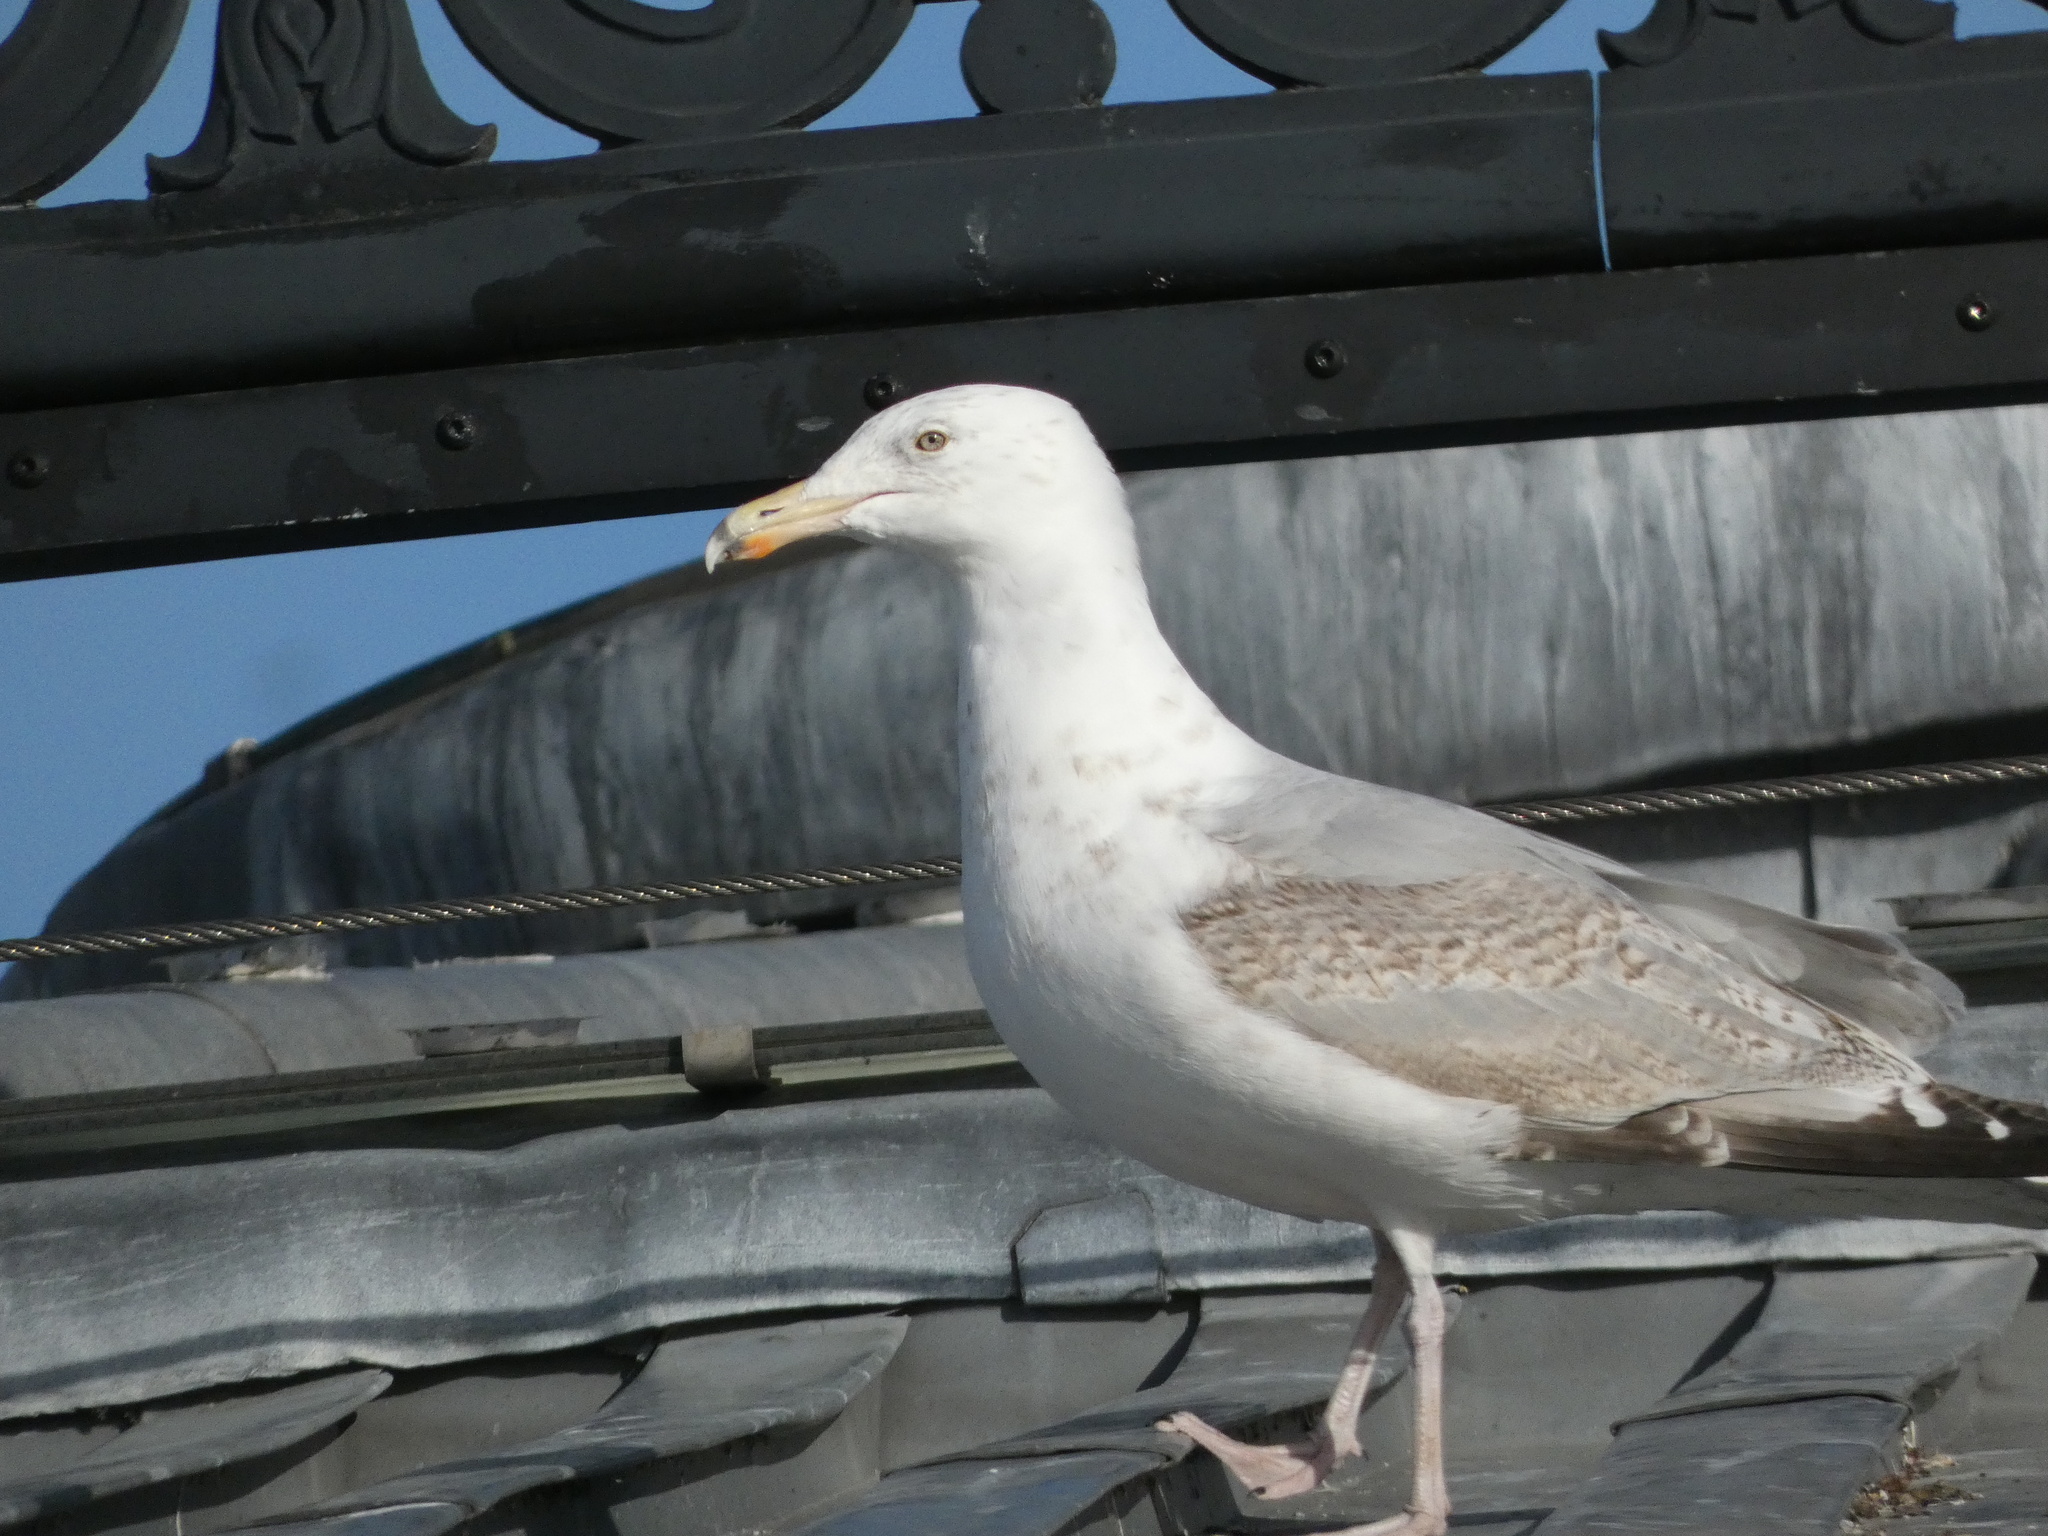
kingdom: Animalia
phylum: Chordata
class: Aves
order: Charadriiformes
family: Laridae
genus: Larus
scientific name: Larus argentatus
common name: Herring gull
